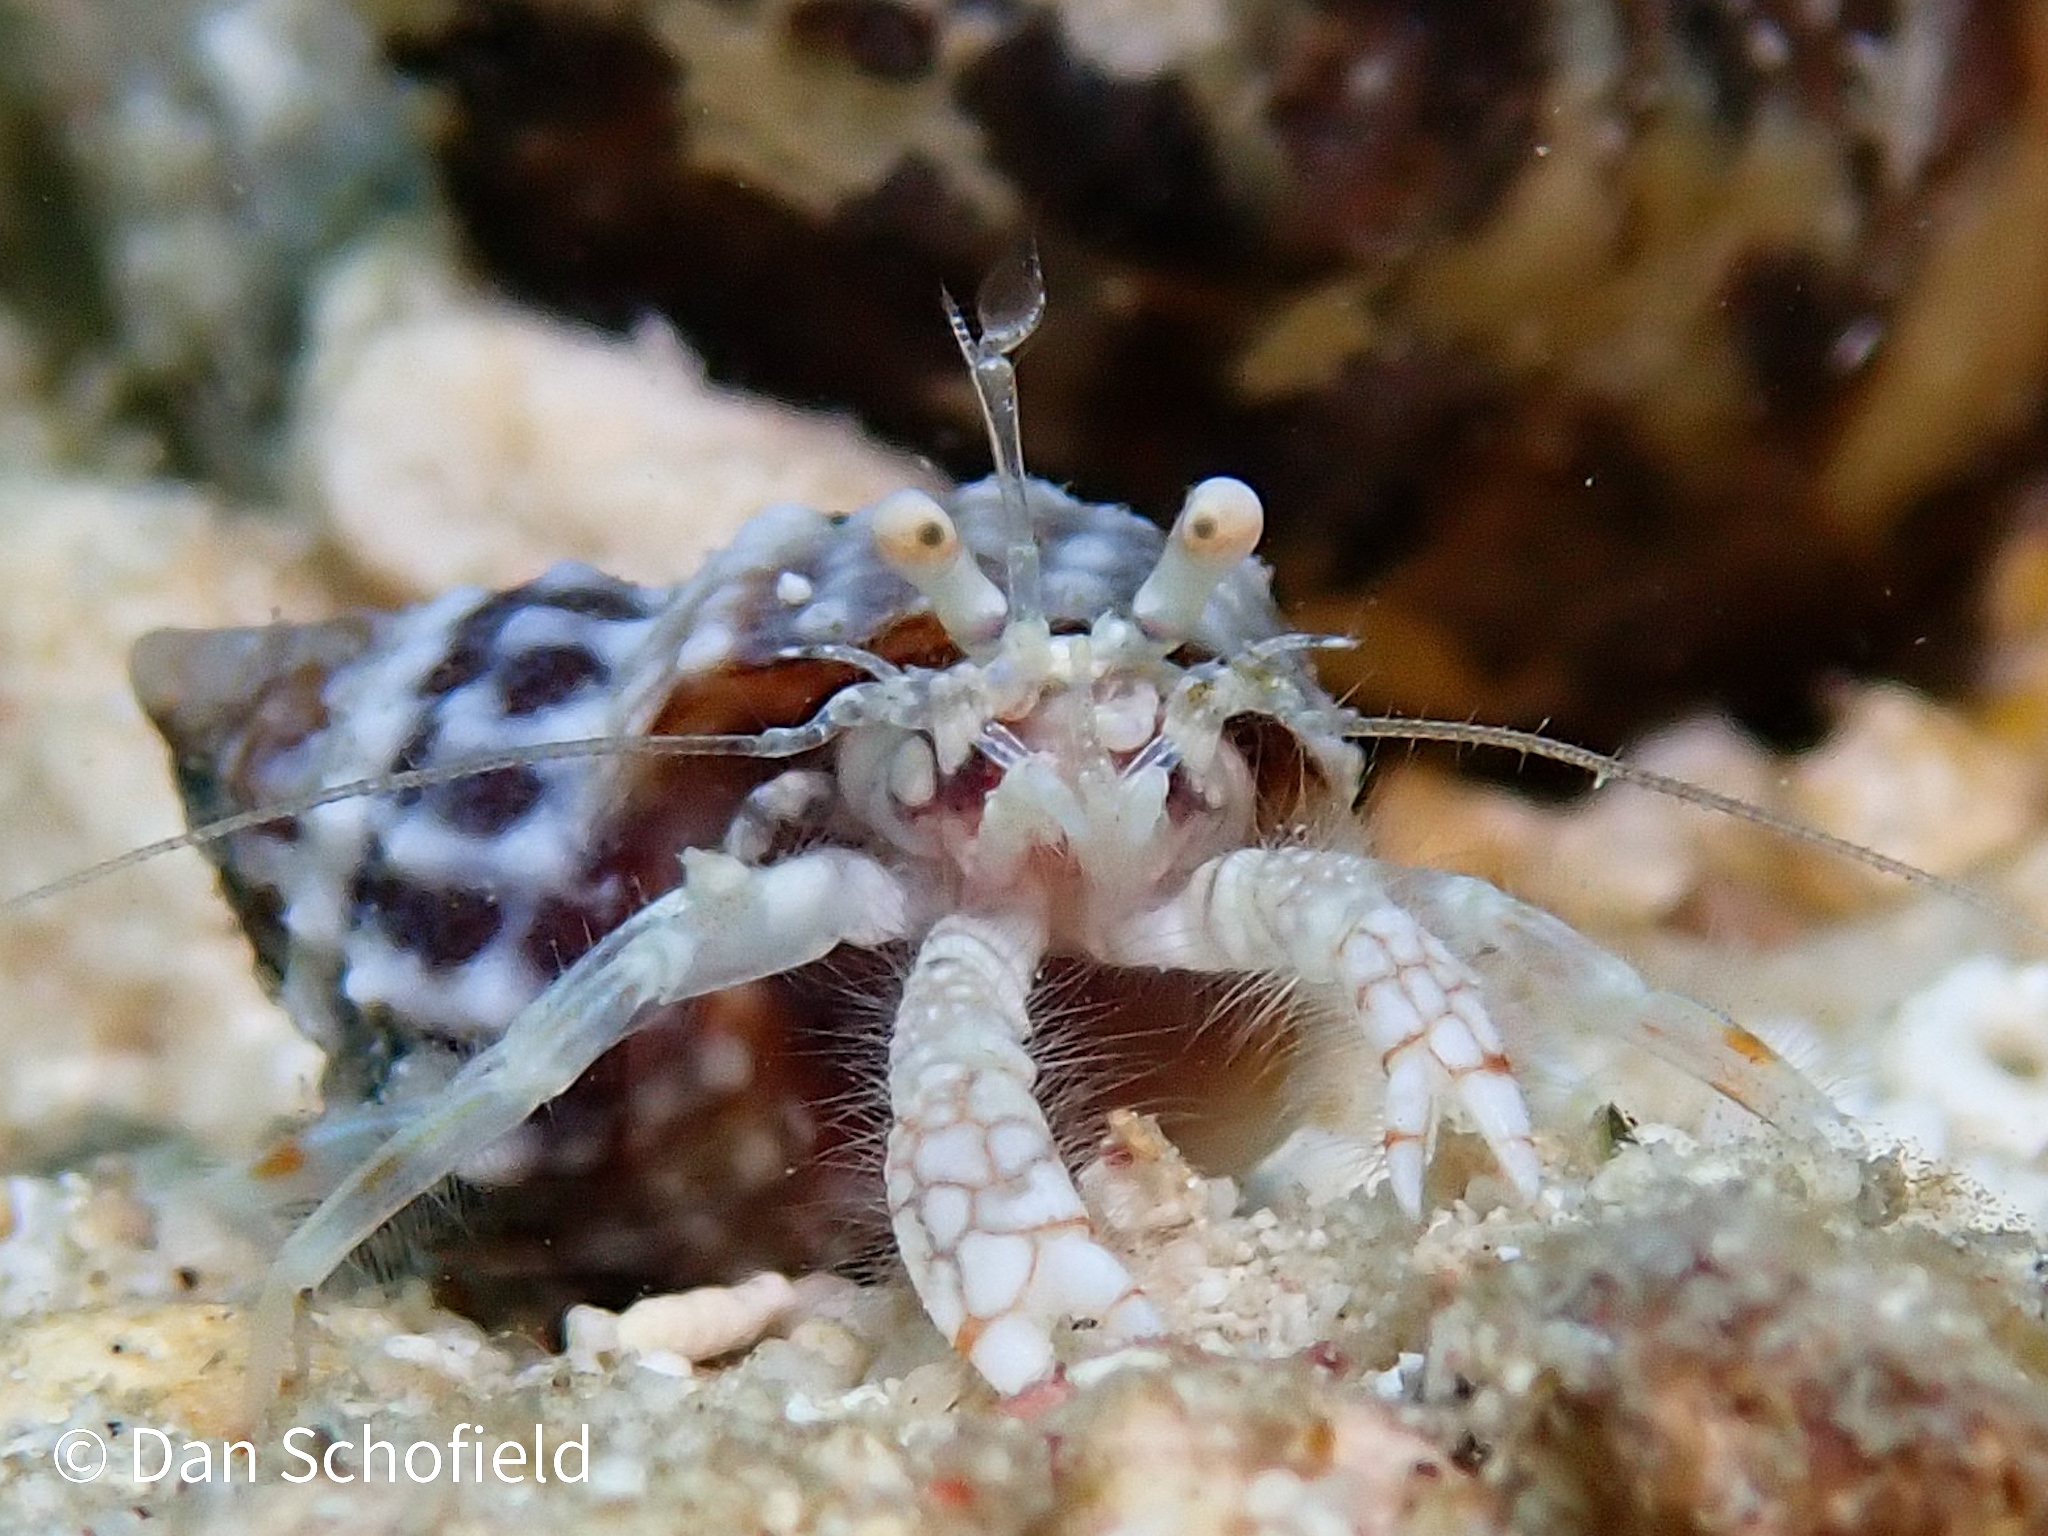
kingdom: Animalia
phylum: Arthropoda
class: Malacostraca
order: Decapoda
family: Paguridae
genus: Iridopagurus
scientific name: Iridopagurus reticulatus
